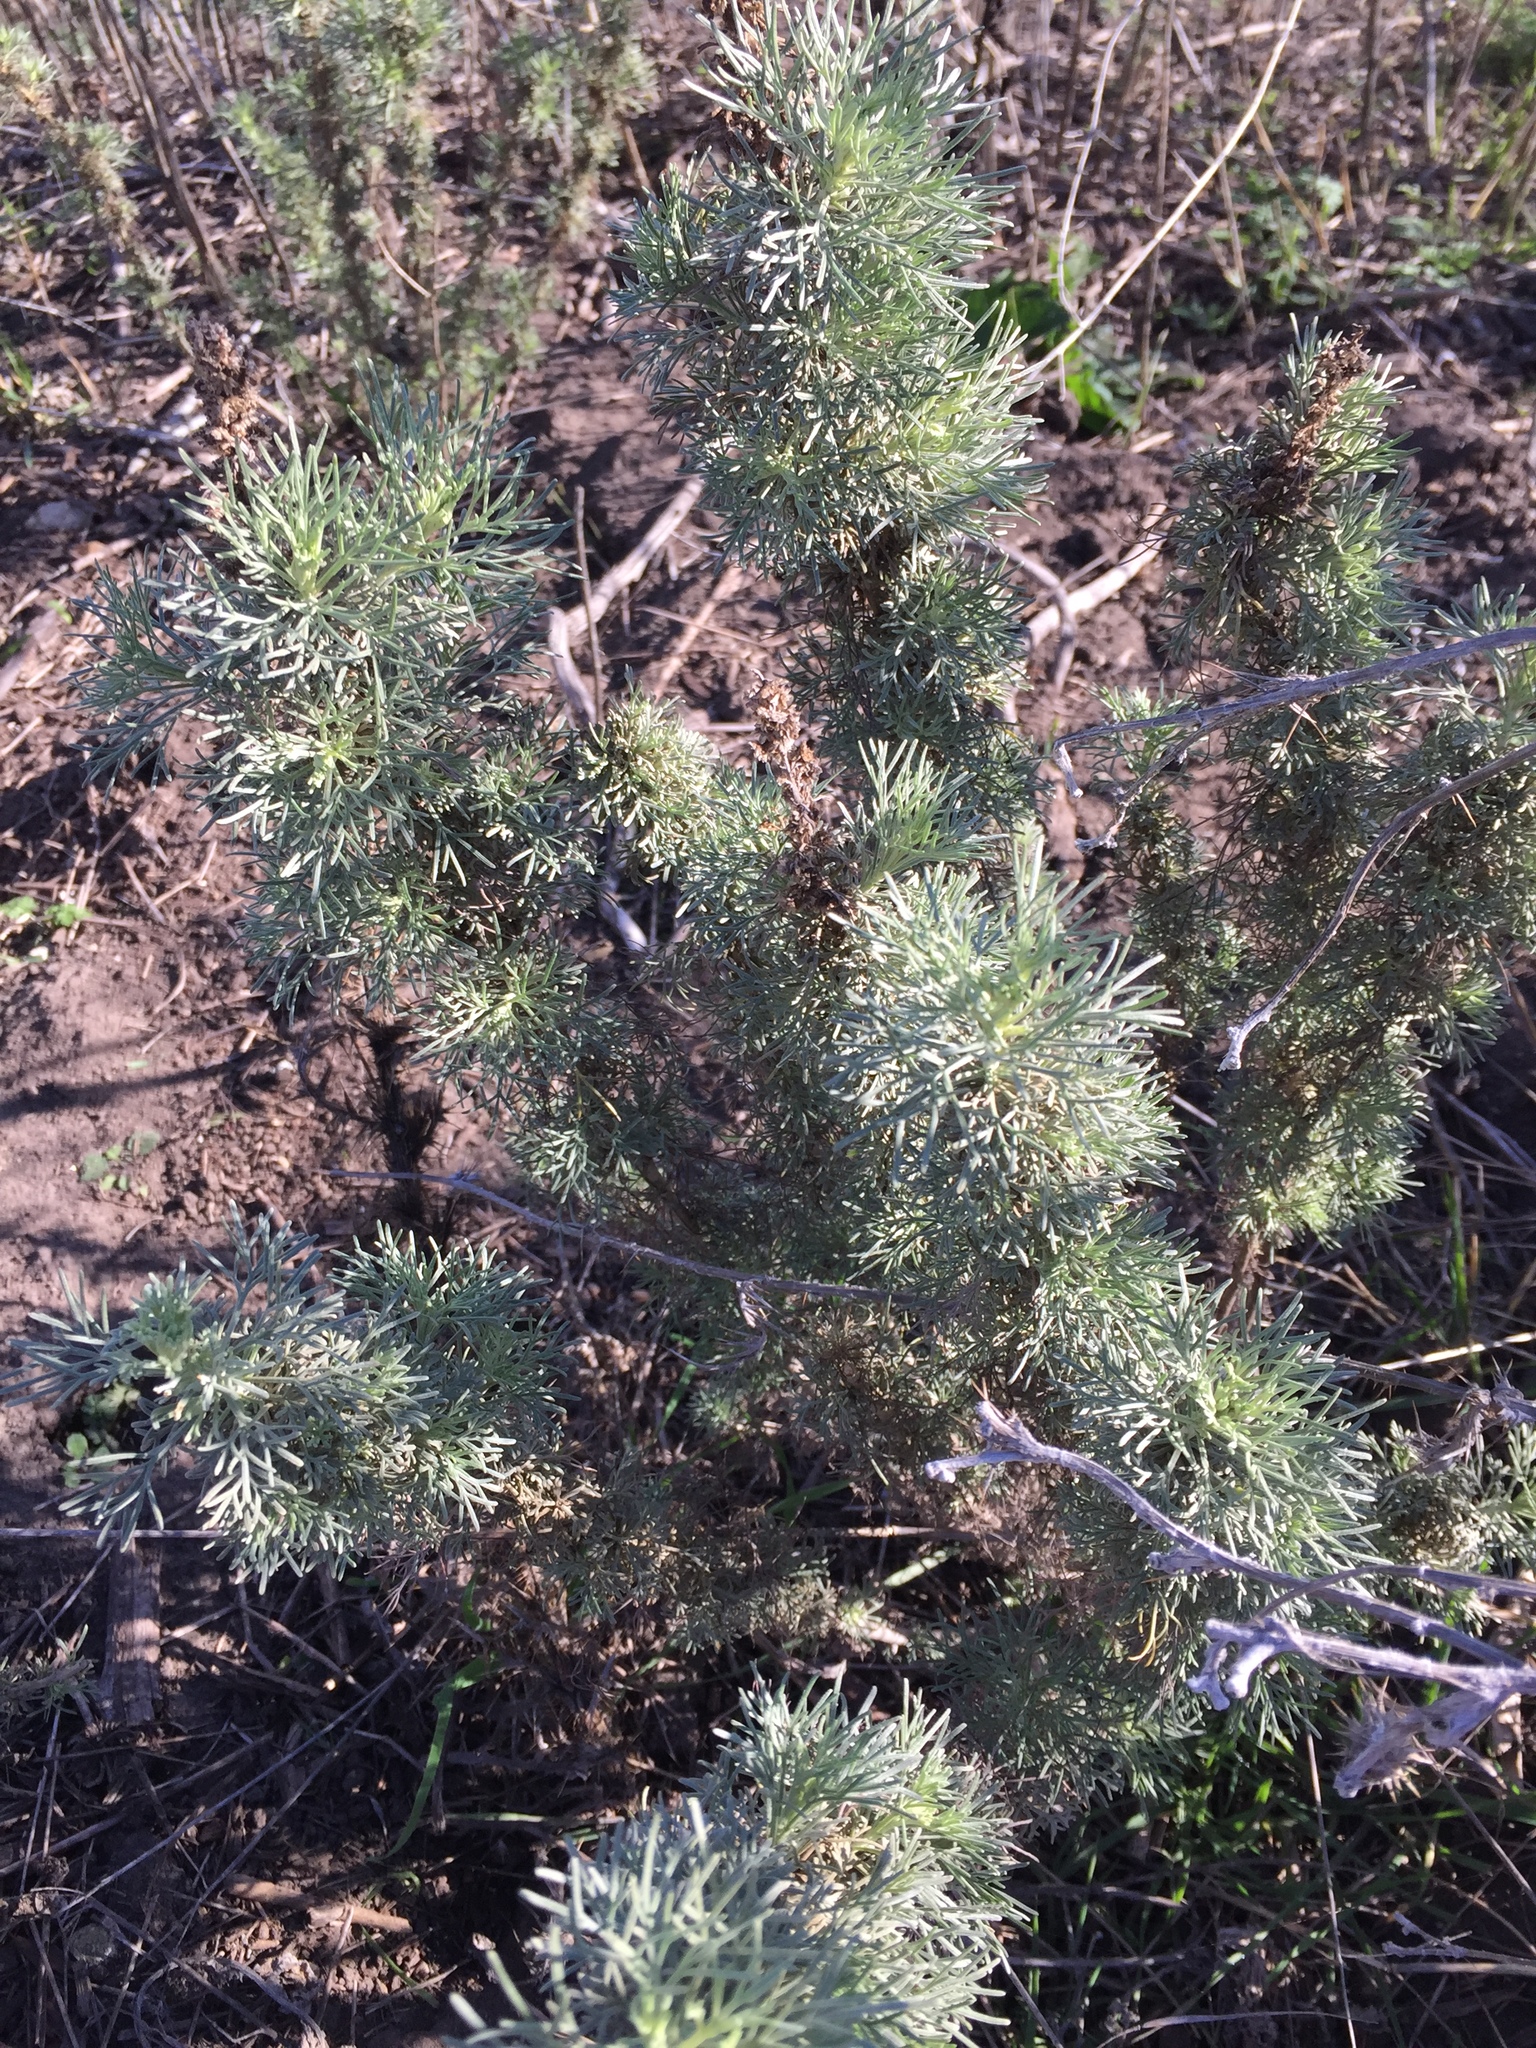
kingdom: Plantae
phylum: Tracheophyta
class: Magnoliopsida
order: Asterales
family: Asteraceae
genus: Artemisia
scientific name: Artemisia californica
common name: California sagebrush
